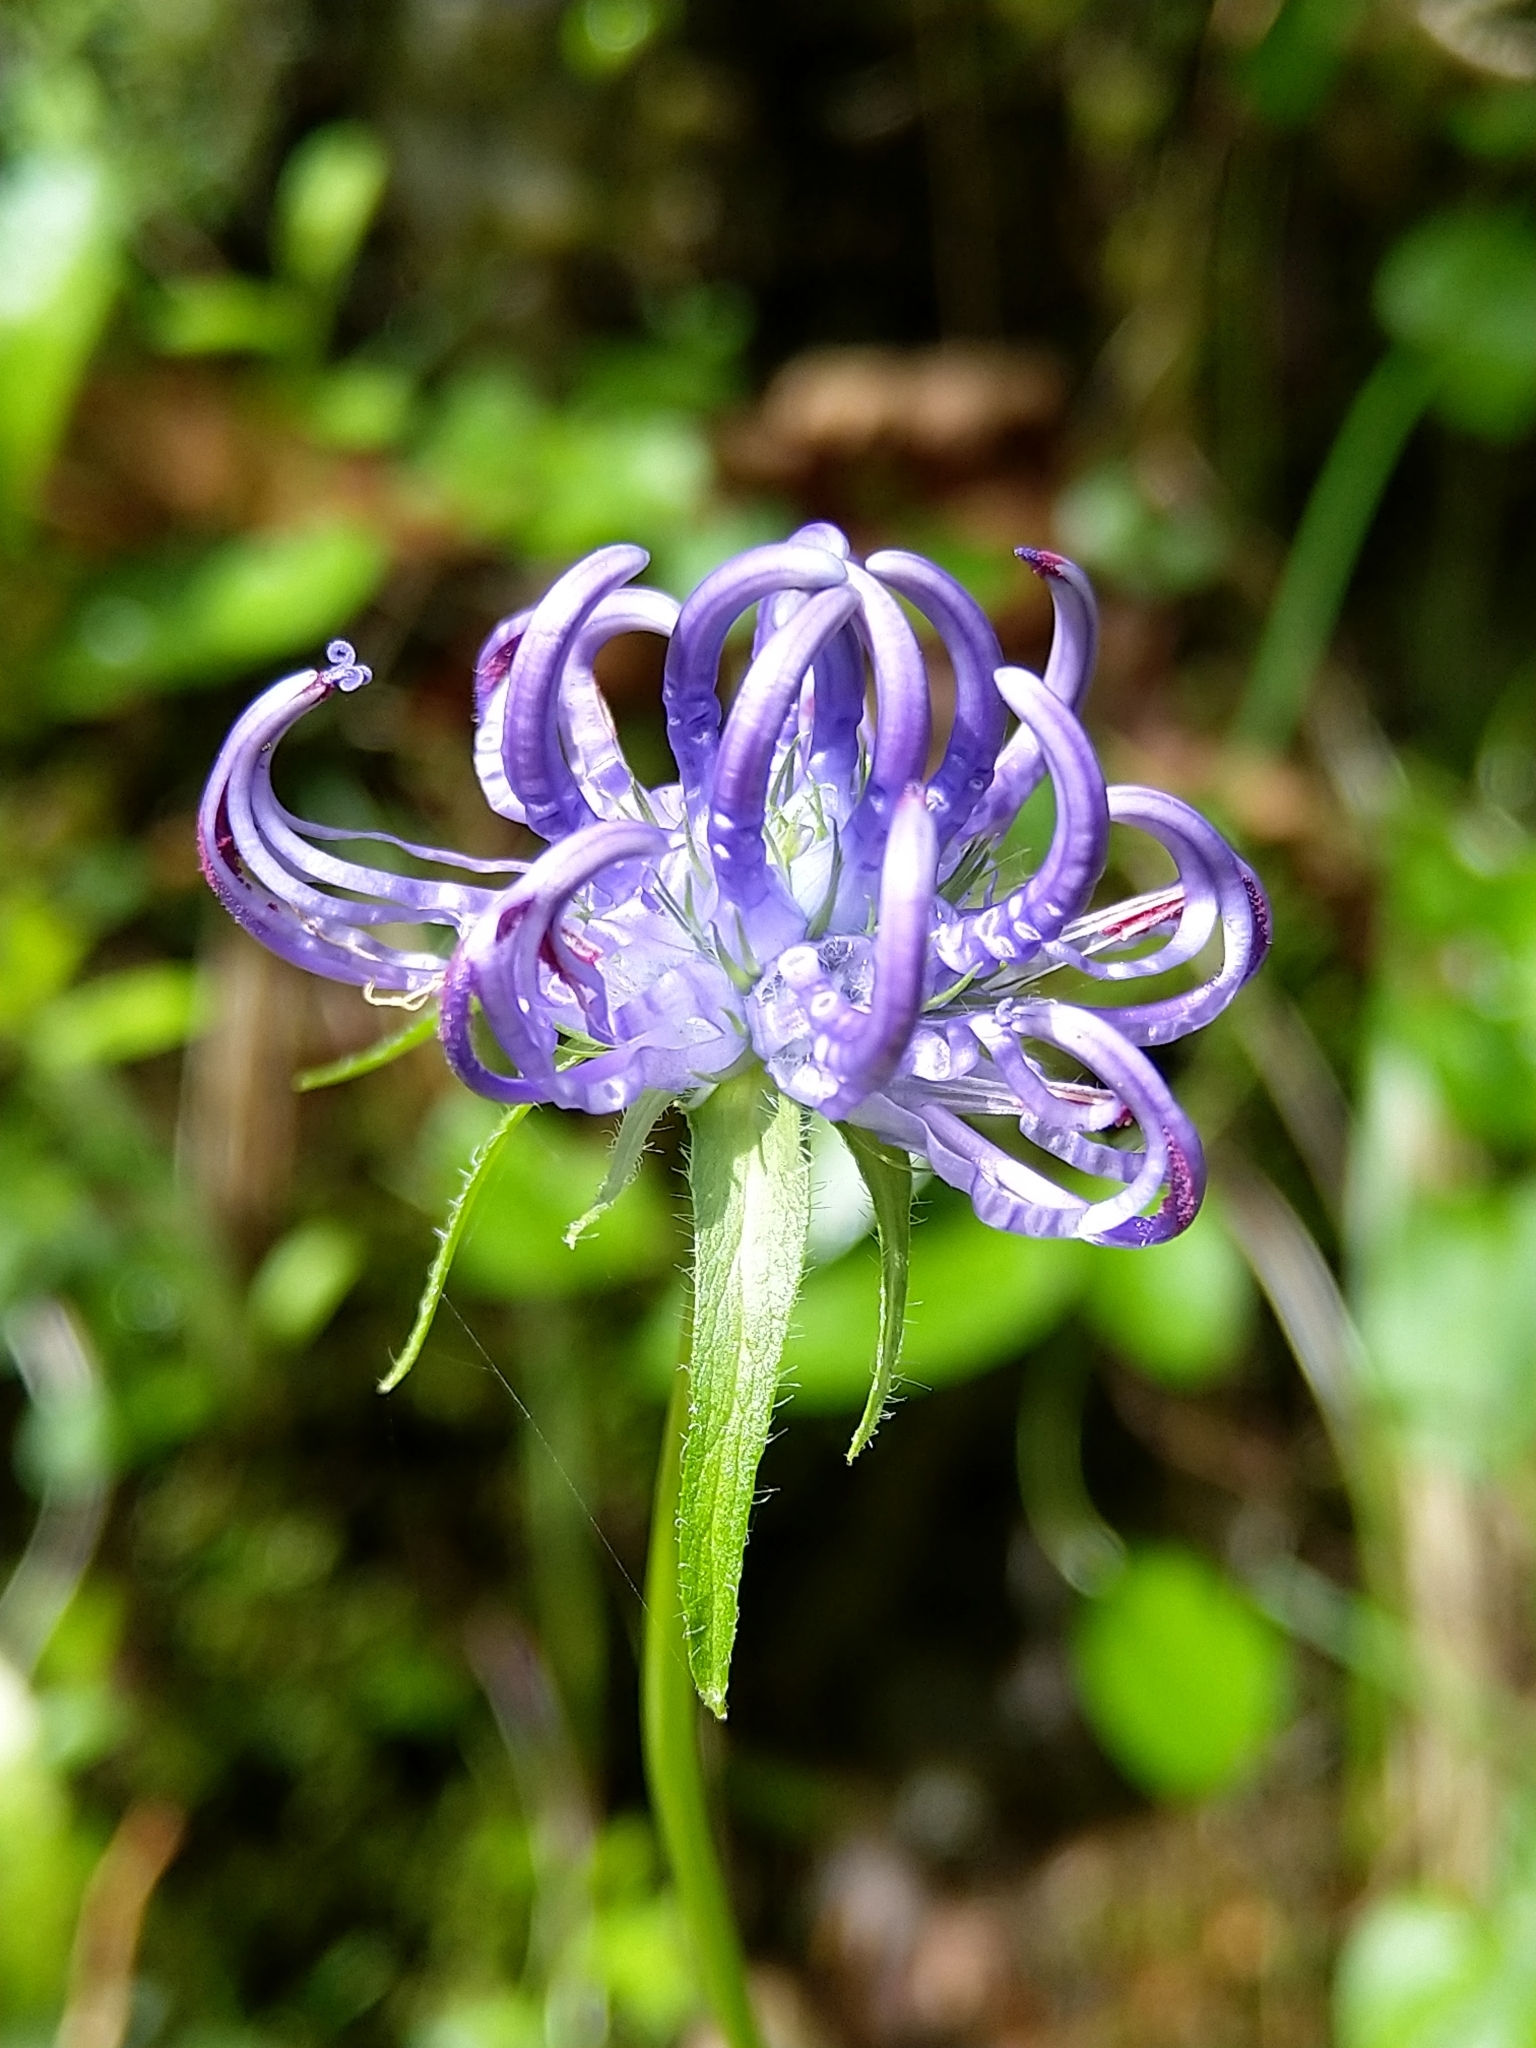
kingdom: Plantae
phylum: Tracheophyta
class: Magnoliopsida
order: Asterales
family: Campanulaceae
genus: Phyteuma
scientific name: Phyteuma orbiculare
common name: Round-headed rampion
